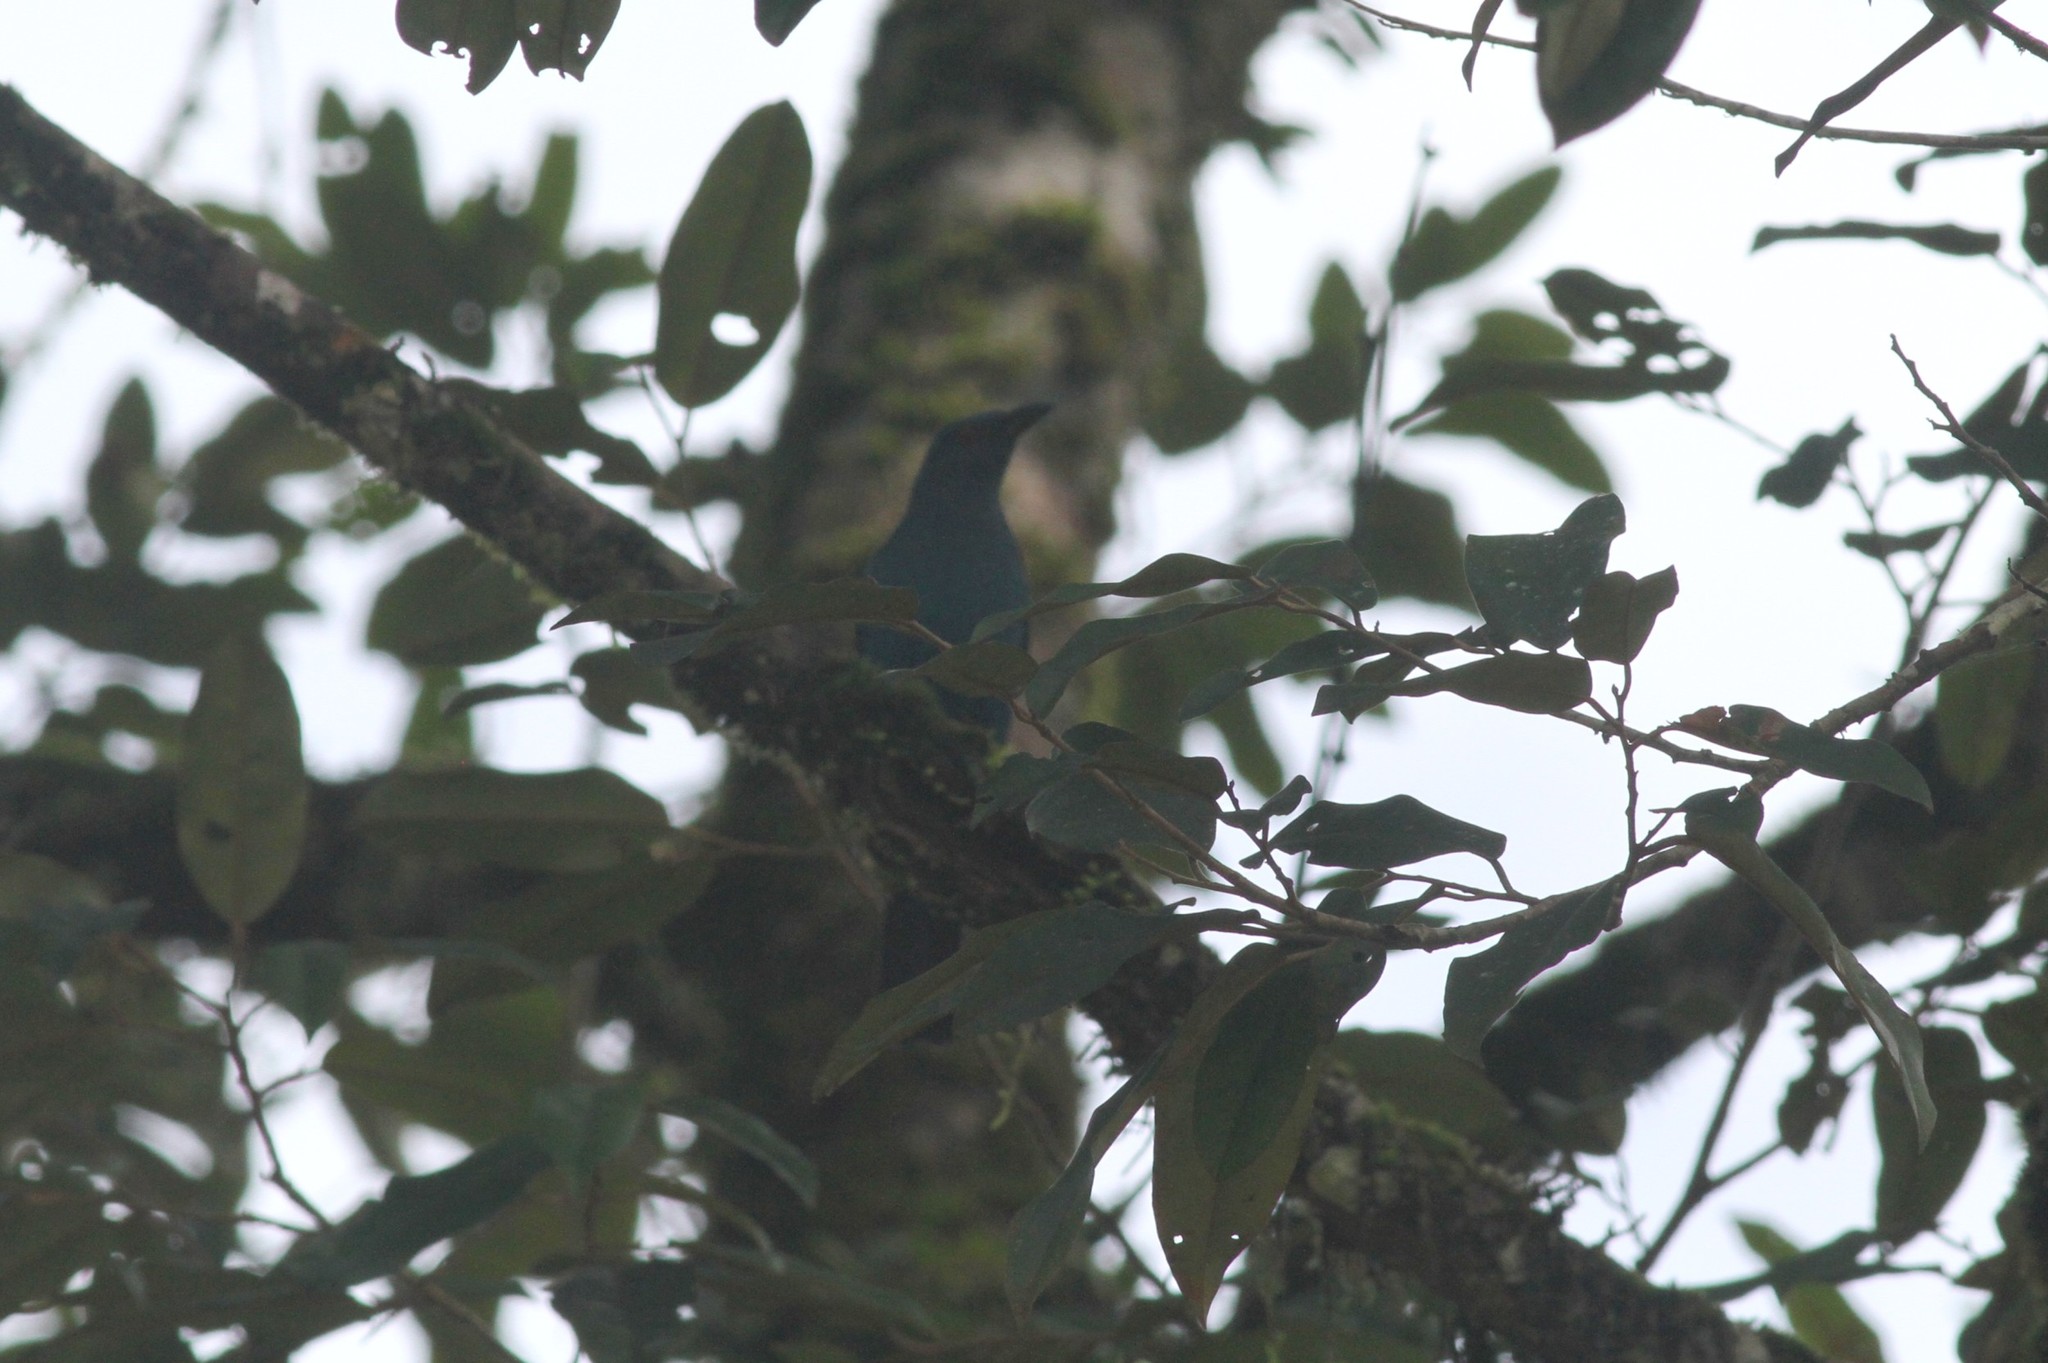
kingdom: Animalia
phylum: Chordata
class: Aves
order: Passeriformes
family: Irenidae
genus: Irena
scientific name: Irena puella
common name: Asian fairy-bluebird
